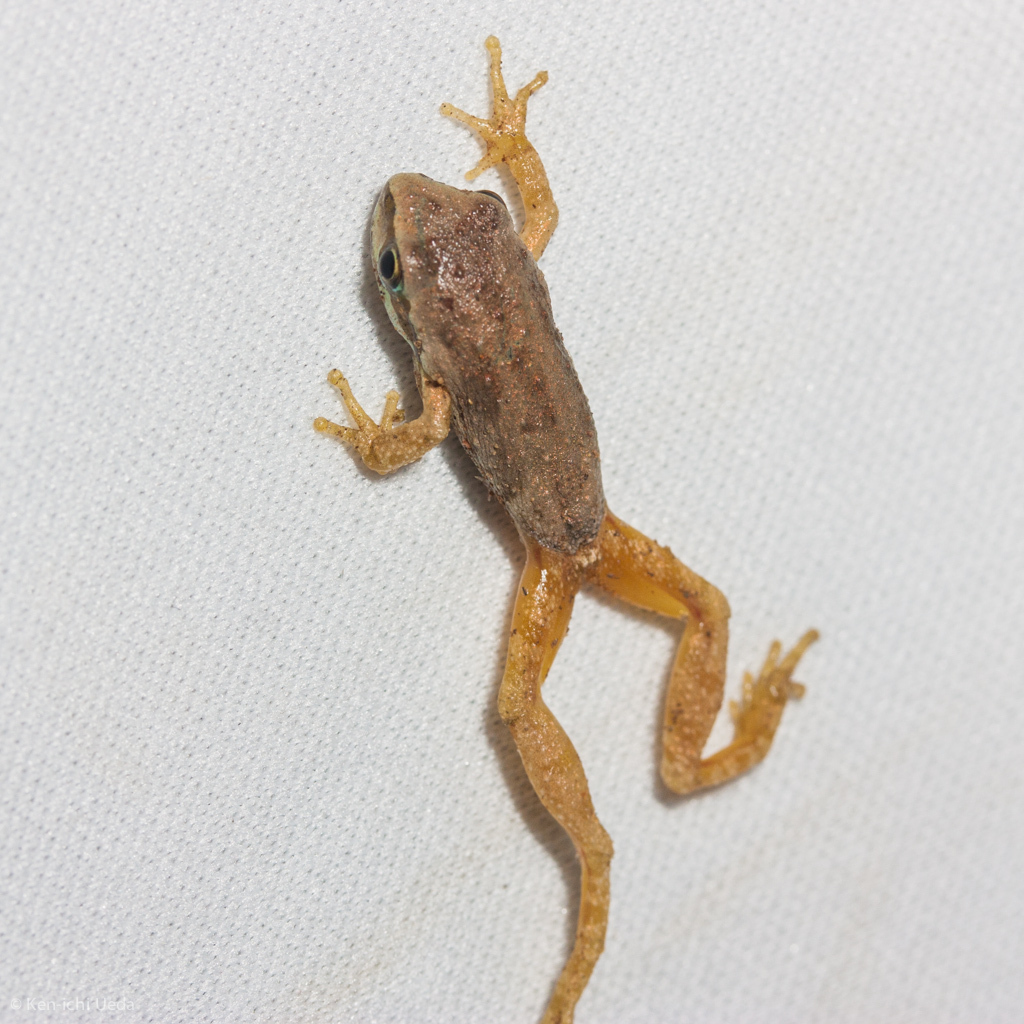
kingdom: Animalia
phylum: Chordata
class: Amphibia
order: Anura
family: Hylidae
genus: Pseudacris
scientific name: Pseudacris regilla
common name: Pacific chorus frog
